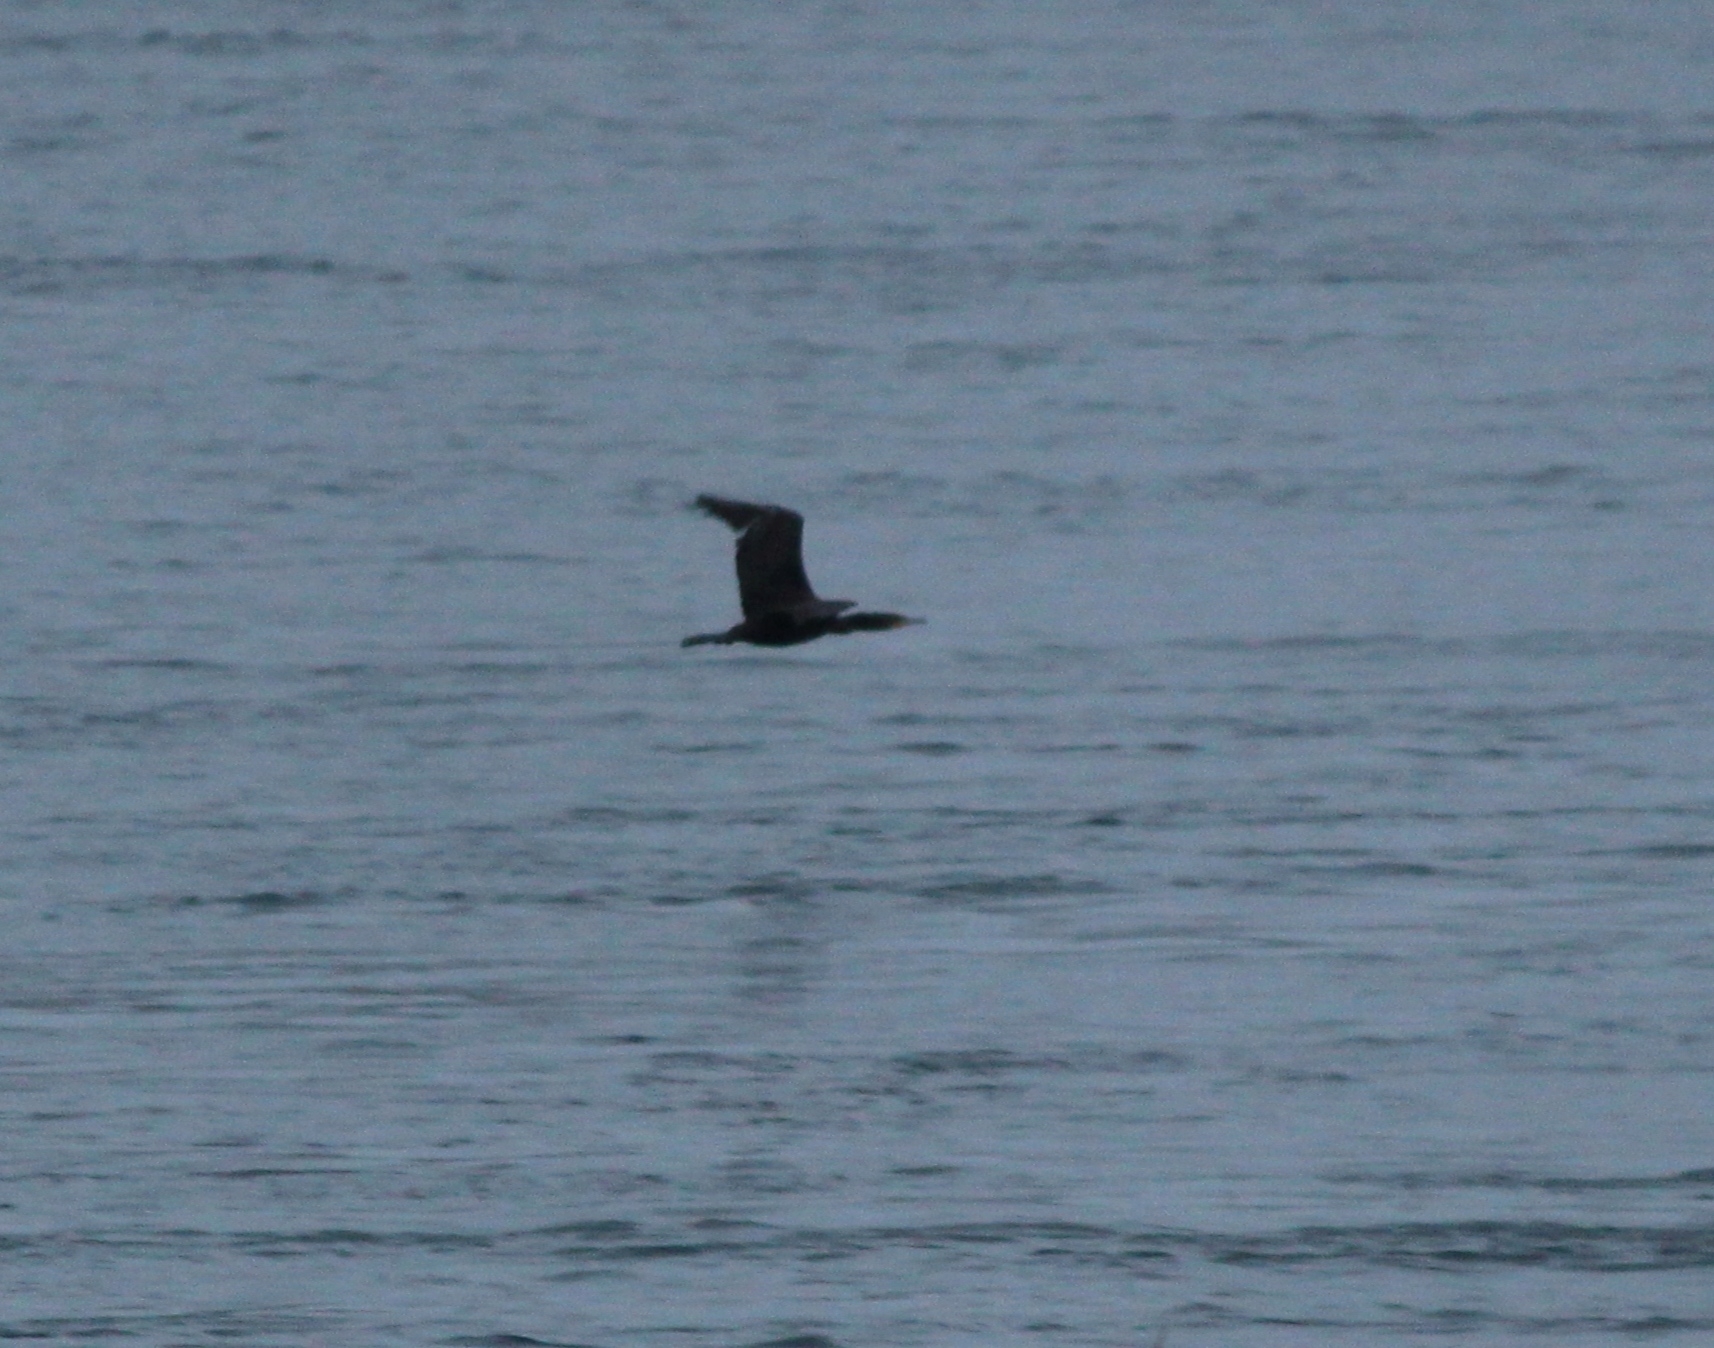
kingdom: Animalia
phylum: Chordata
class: Aves
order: Suliformes
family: Phalacrocoracidae
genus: Phalacrocorax
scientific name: Phalacrocorax carbo
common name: Great cormorant
